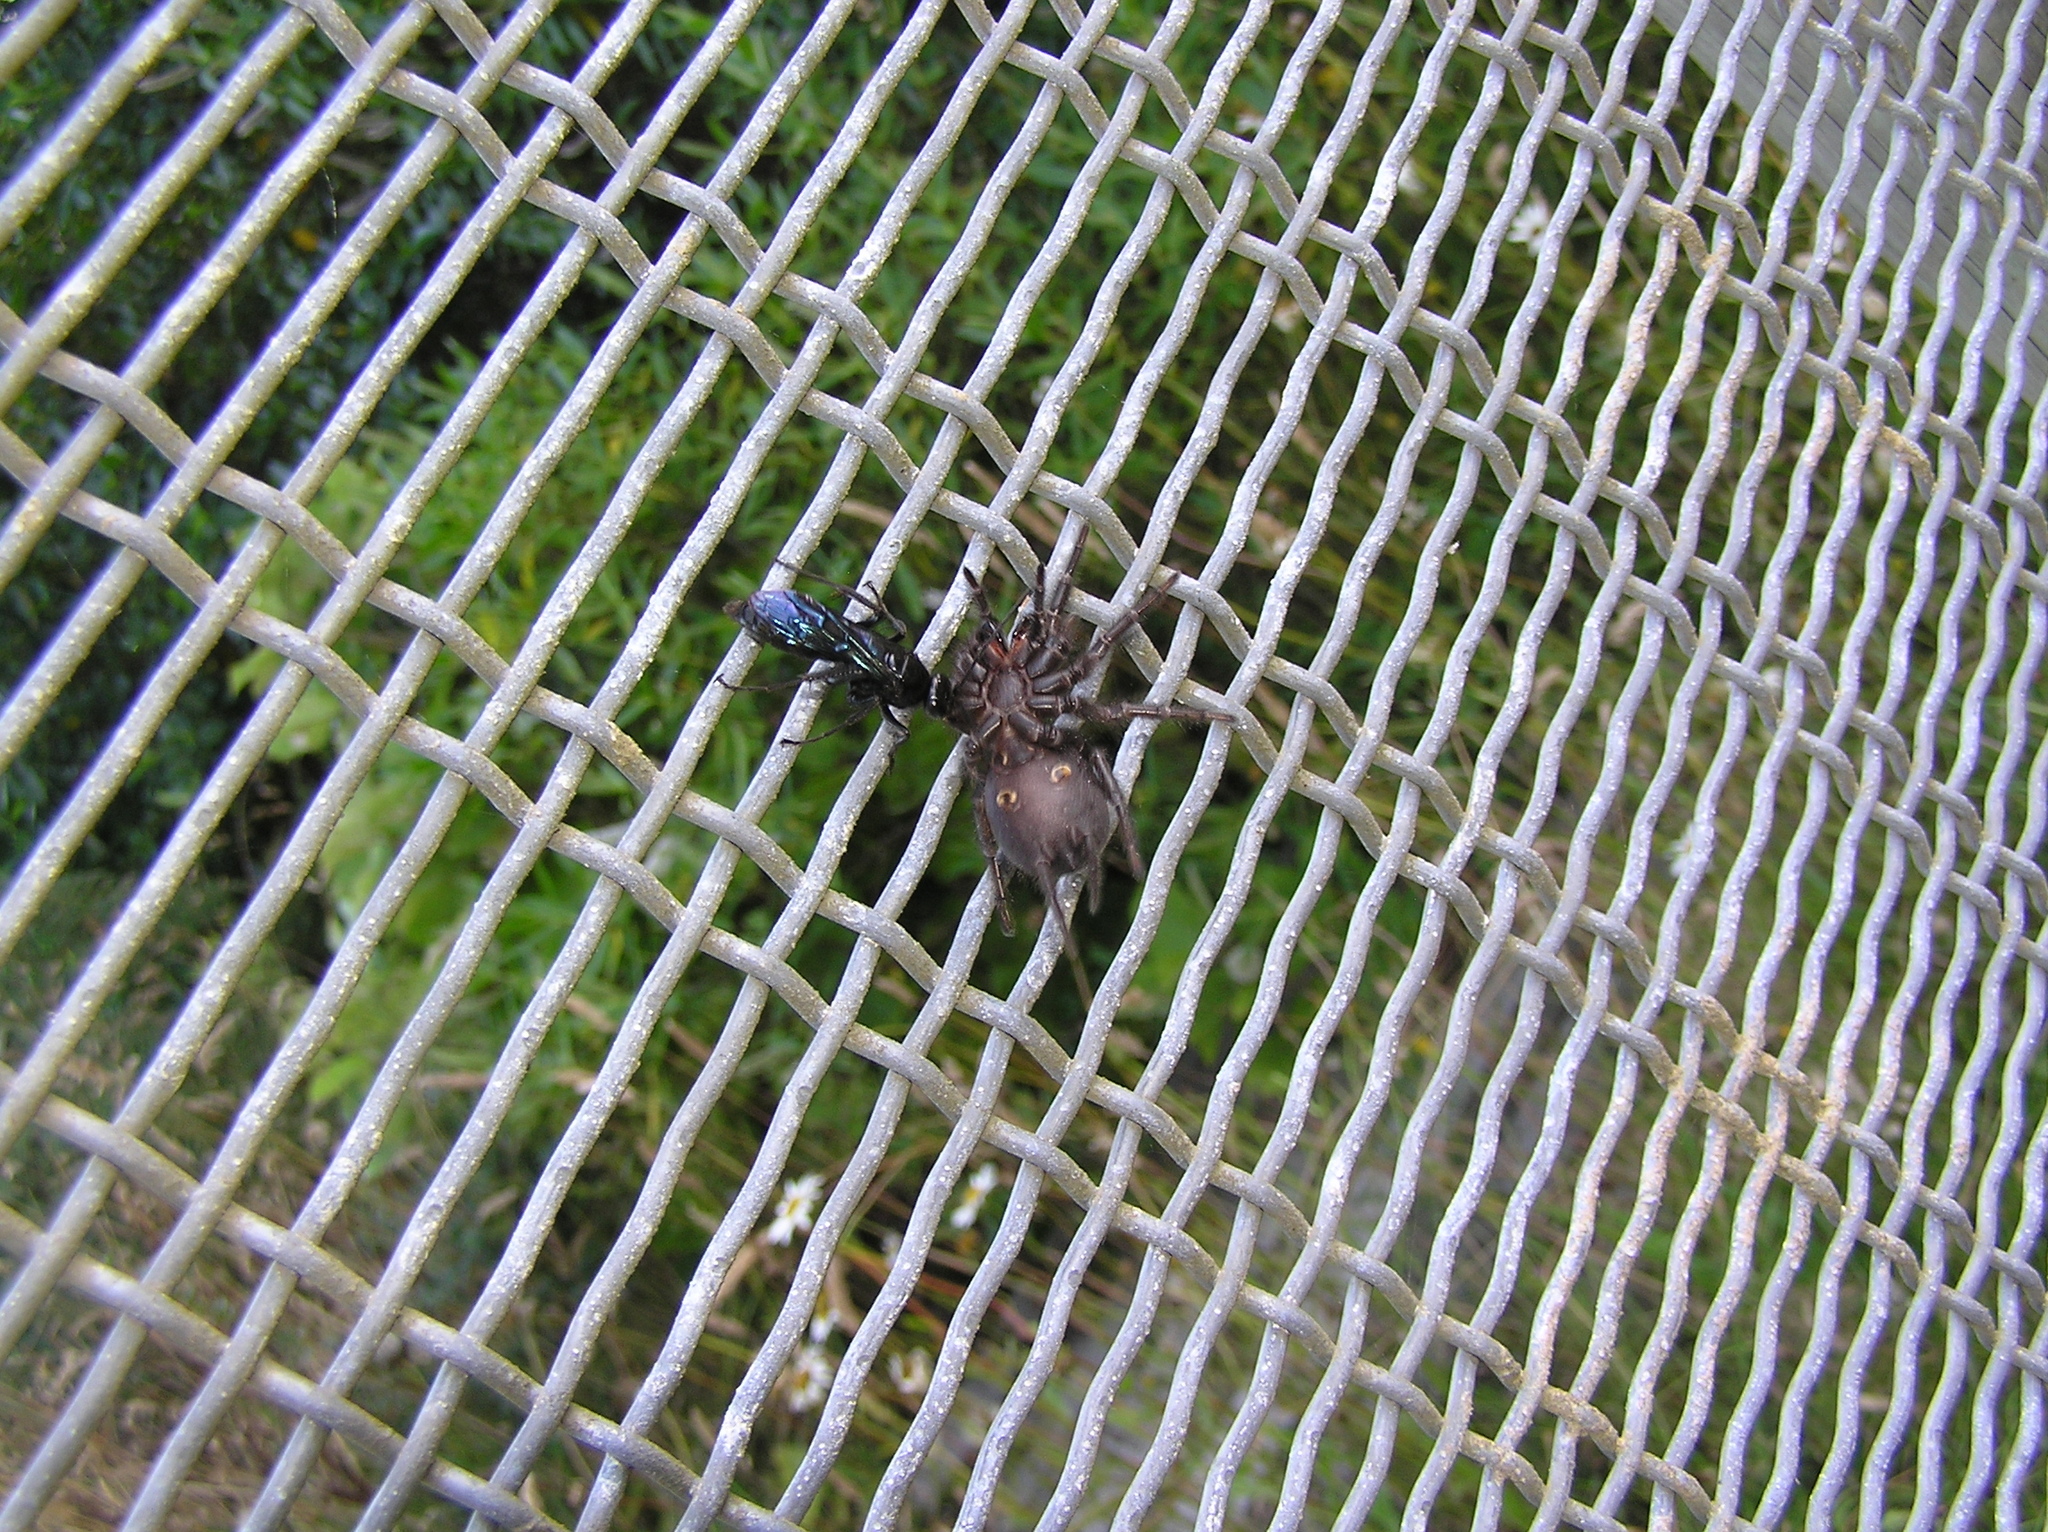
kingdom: Animalia
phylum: Arthropoda
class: Insecta
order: Hymenoptera
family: Pompilidae
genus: Priocnemis
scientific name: Priocnemis monachus
